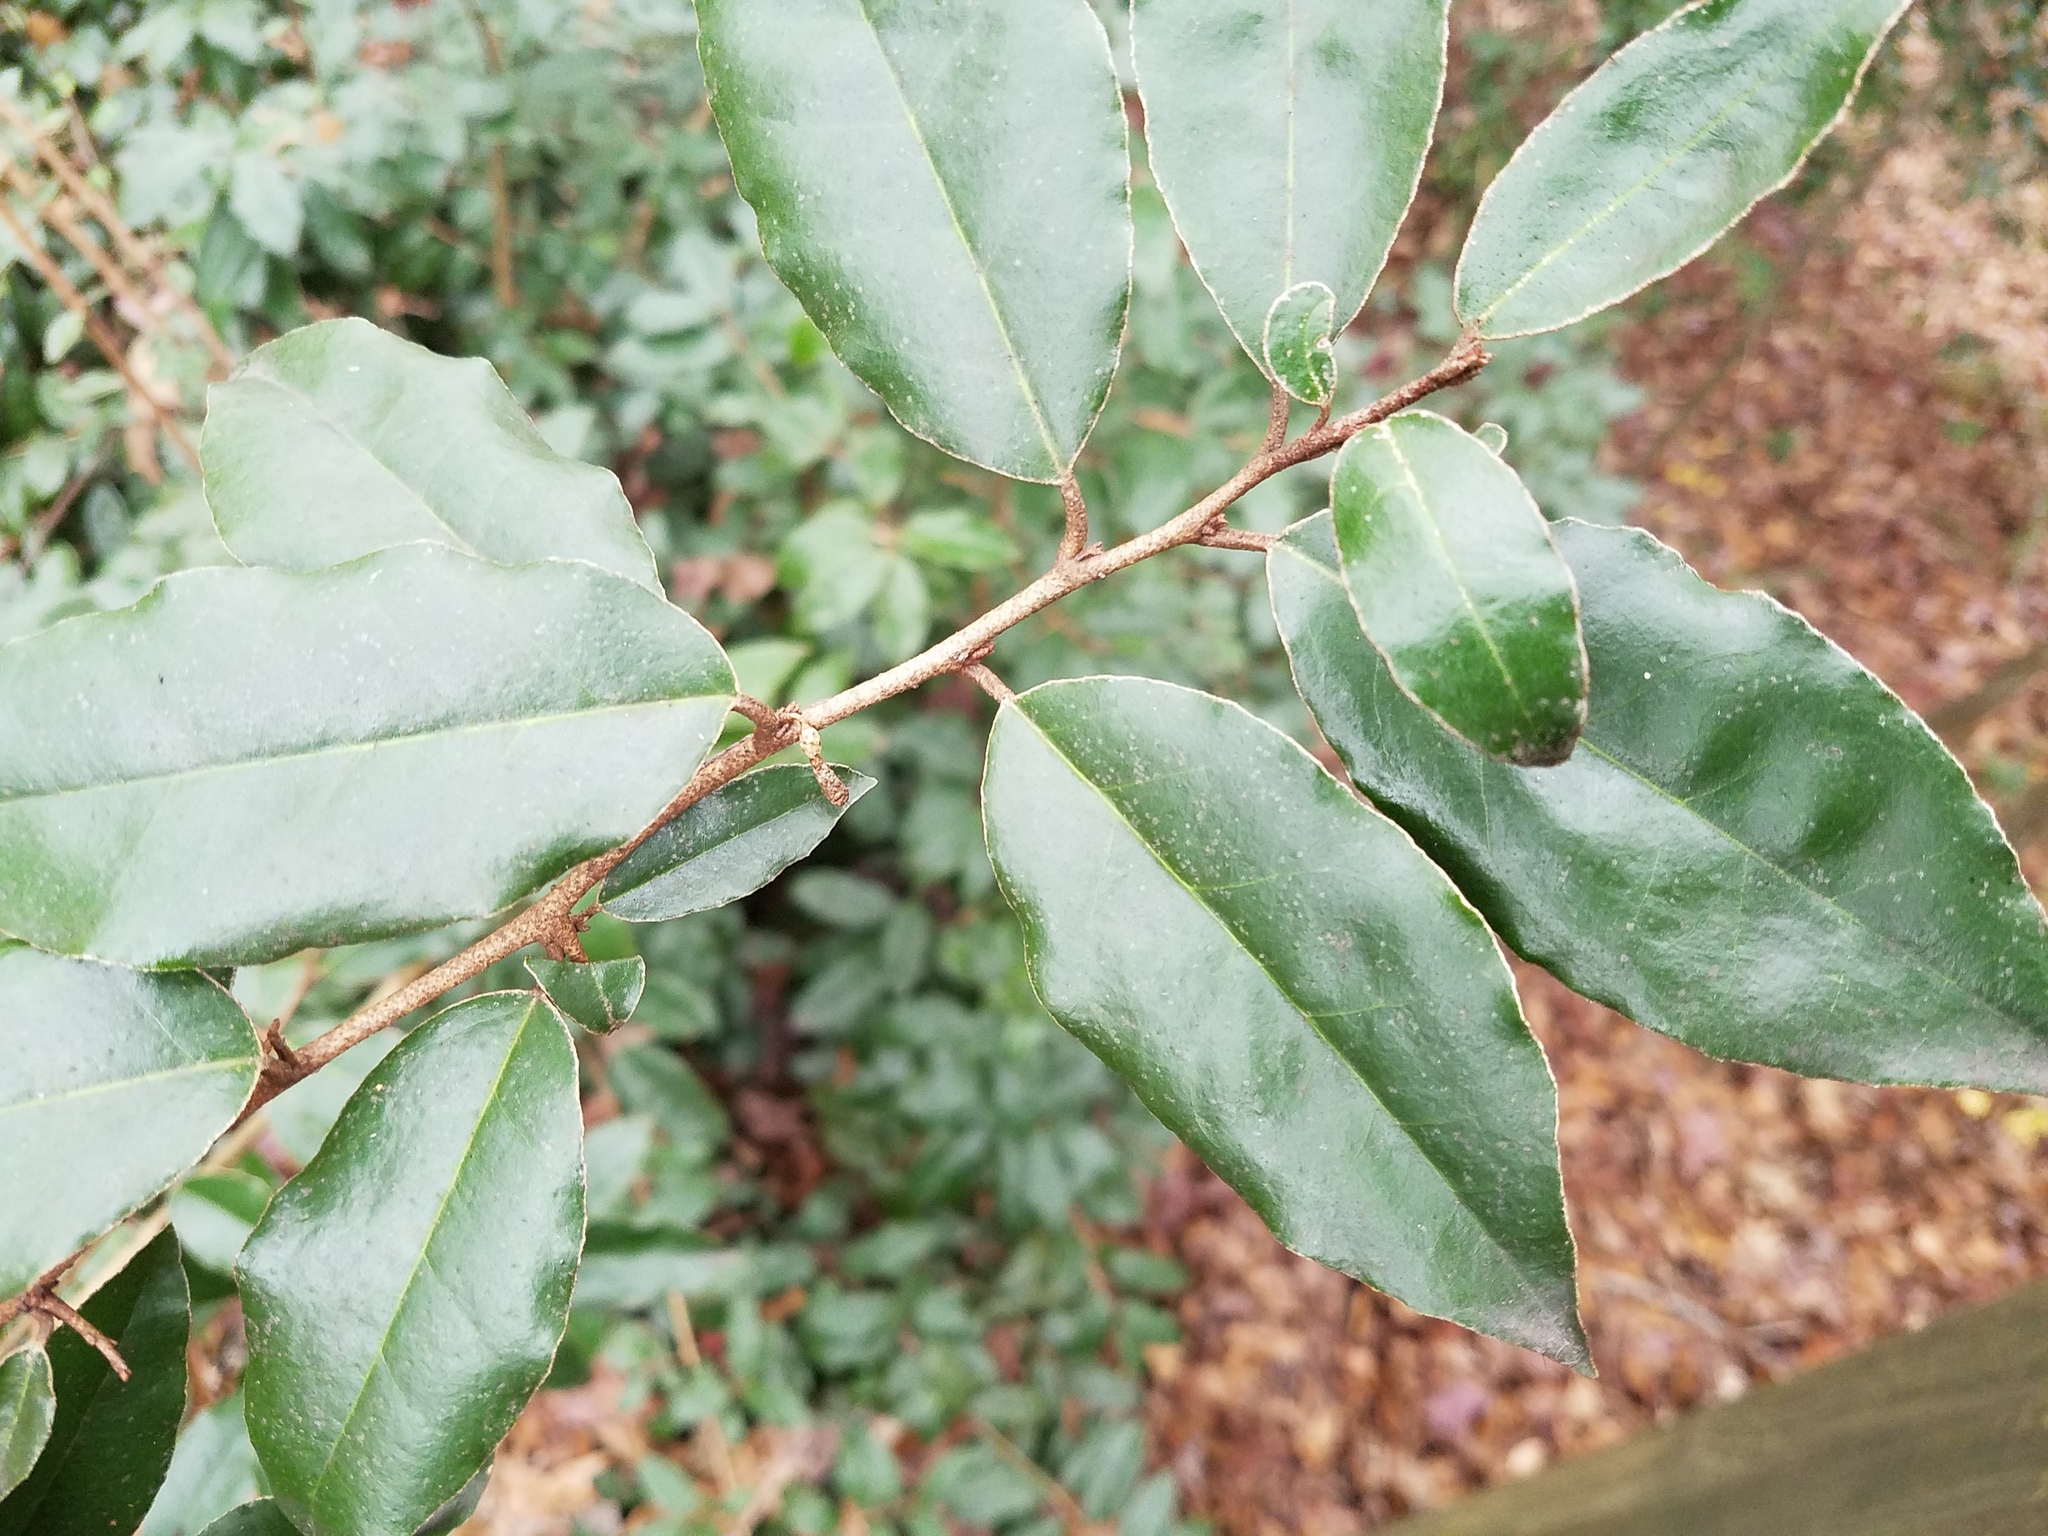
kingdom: Plantae
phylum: Tracheophyta
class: Magnoliopsida
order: Rosales
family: Elaeagnaceae
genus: Elaeagnus
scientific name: Elaeagnus pungens
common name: Spiny oleaster
